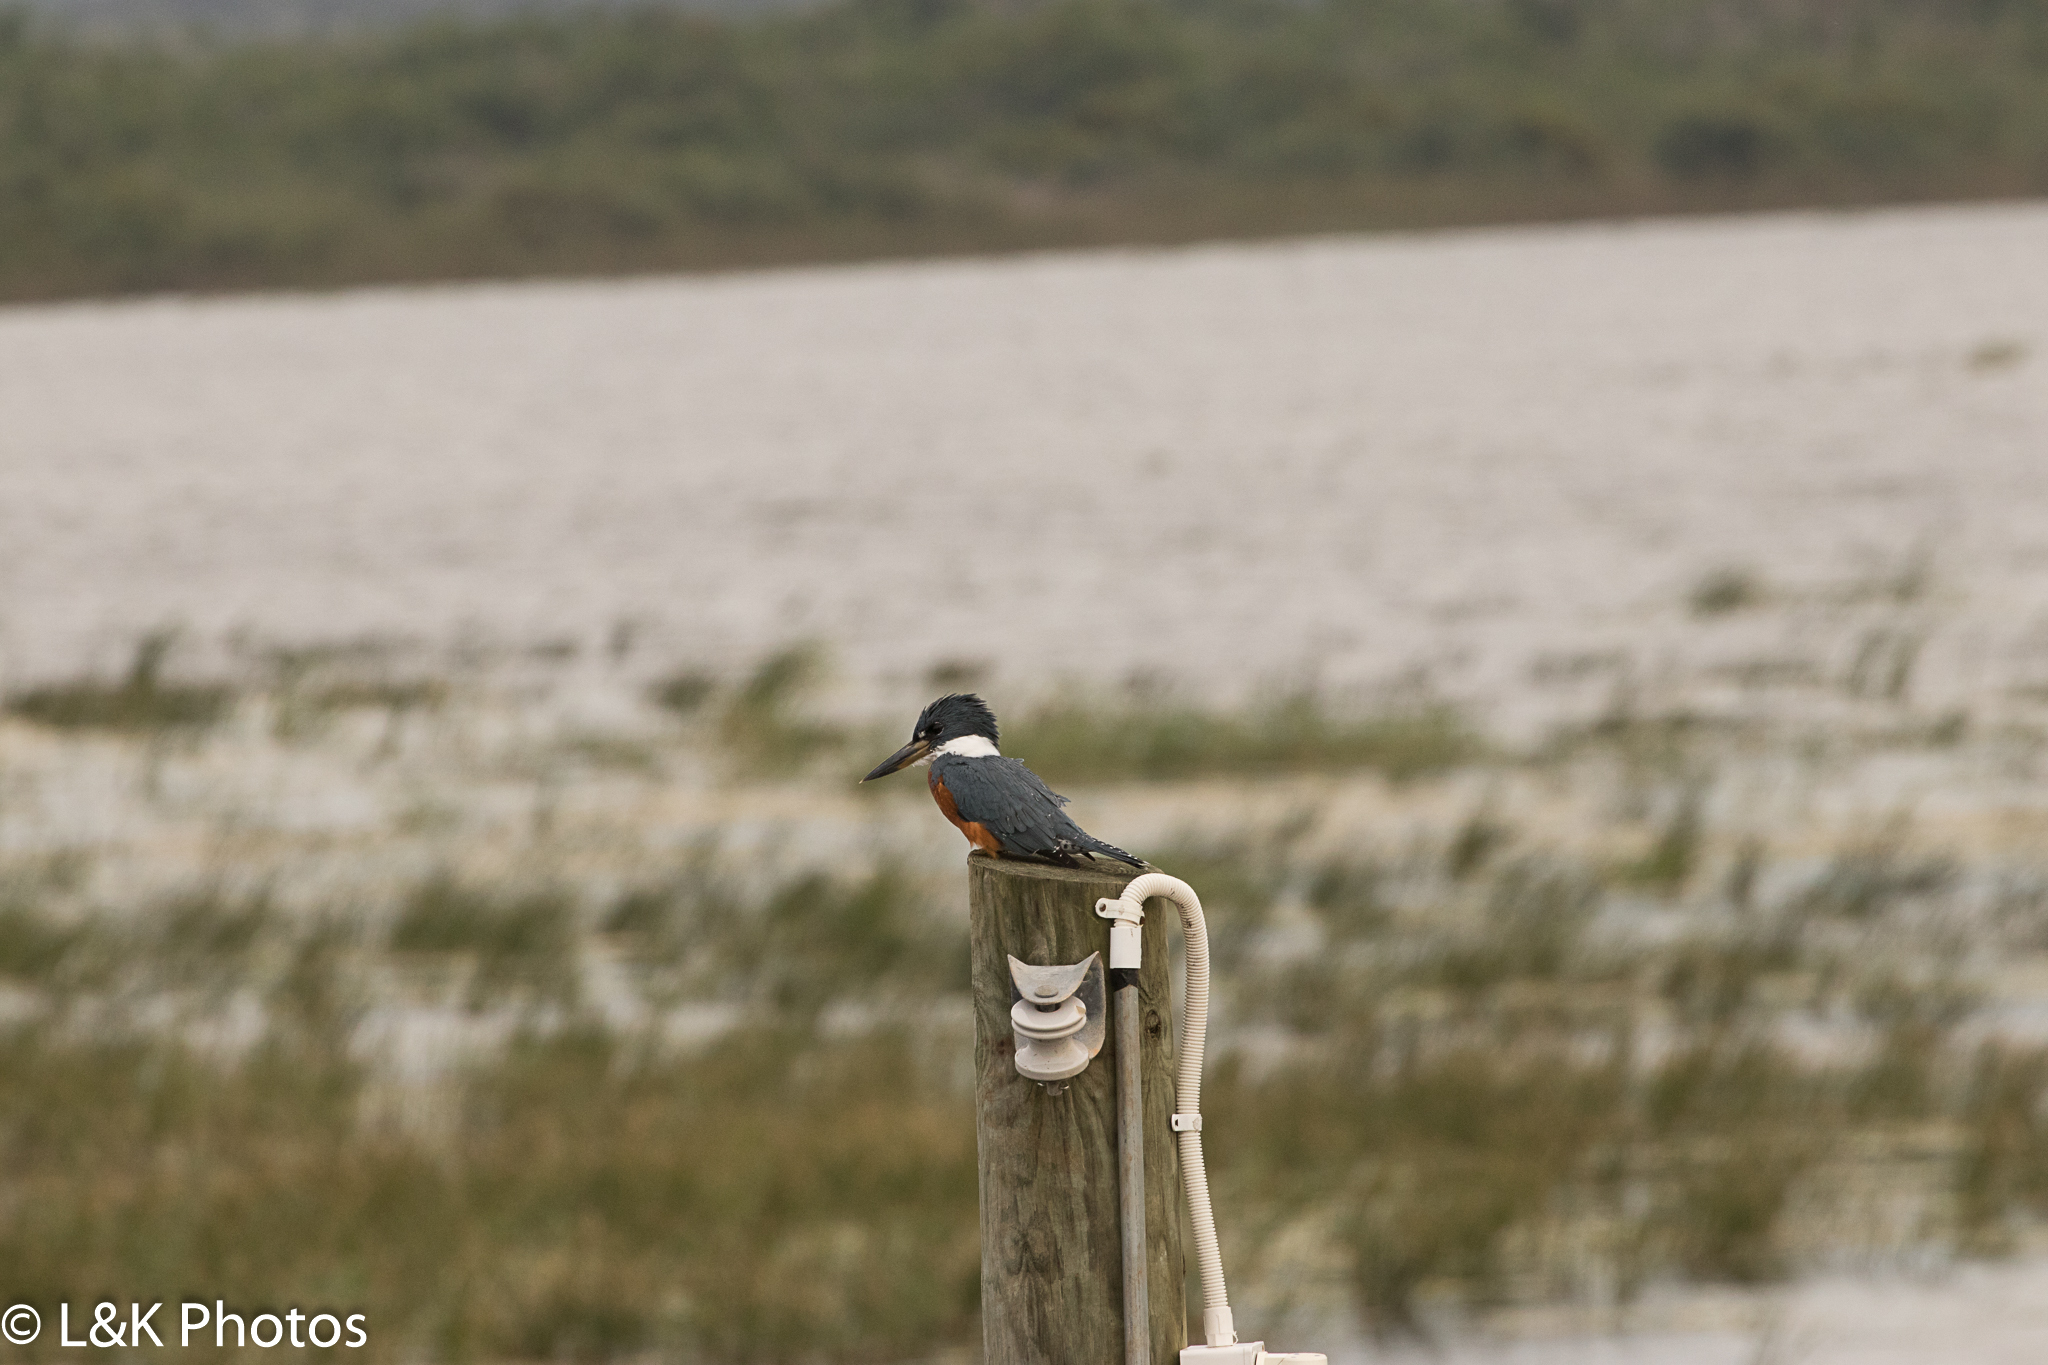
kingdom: Animalia
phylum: Chordata
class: Aves
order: Coraciiformes
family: Alcedinidae
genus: Megaceryle
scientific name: Megaceryle torquata
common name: Ringed kingfisher
